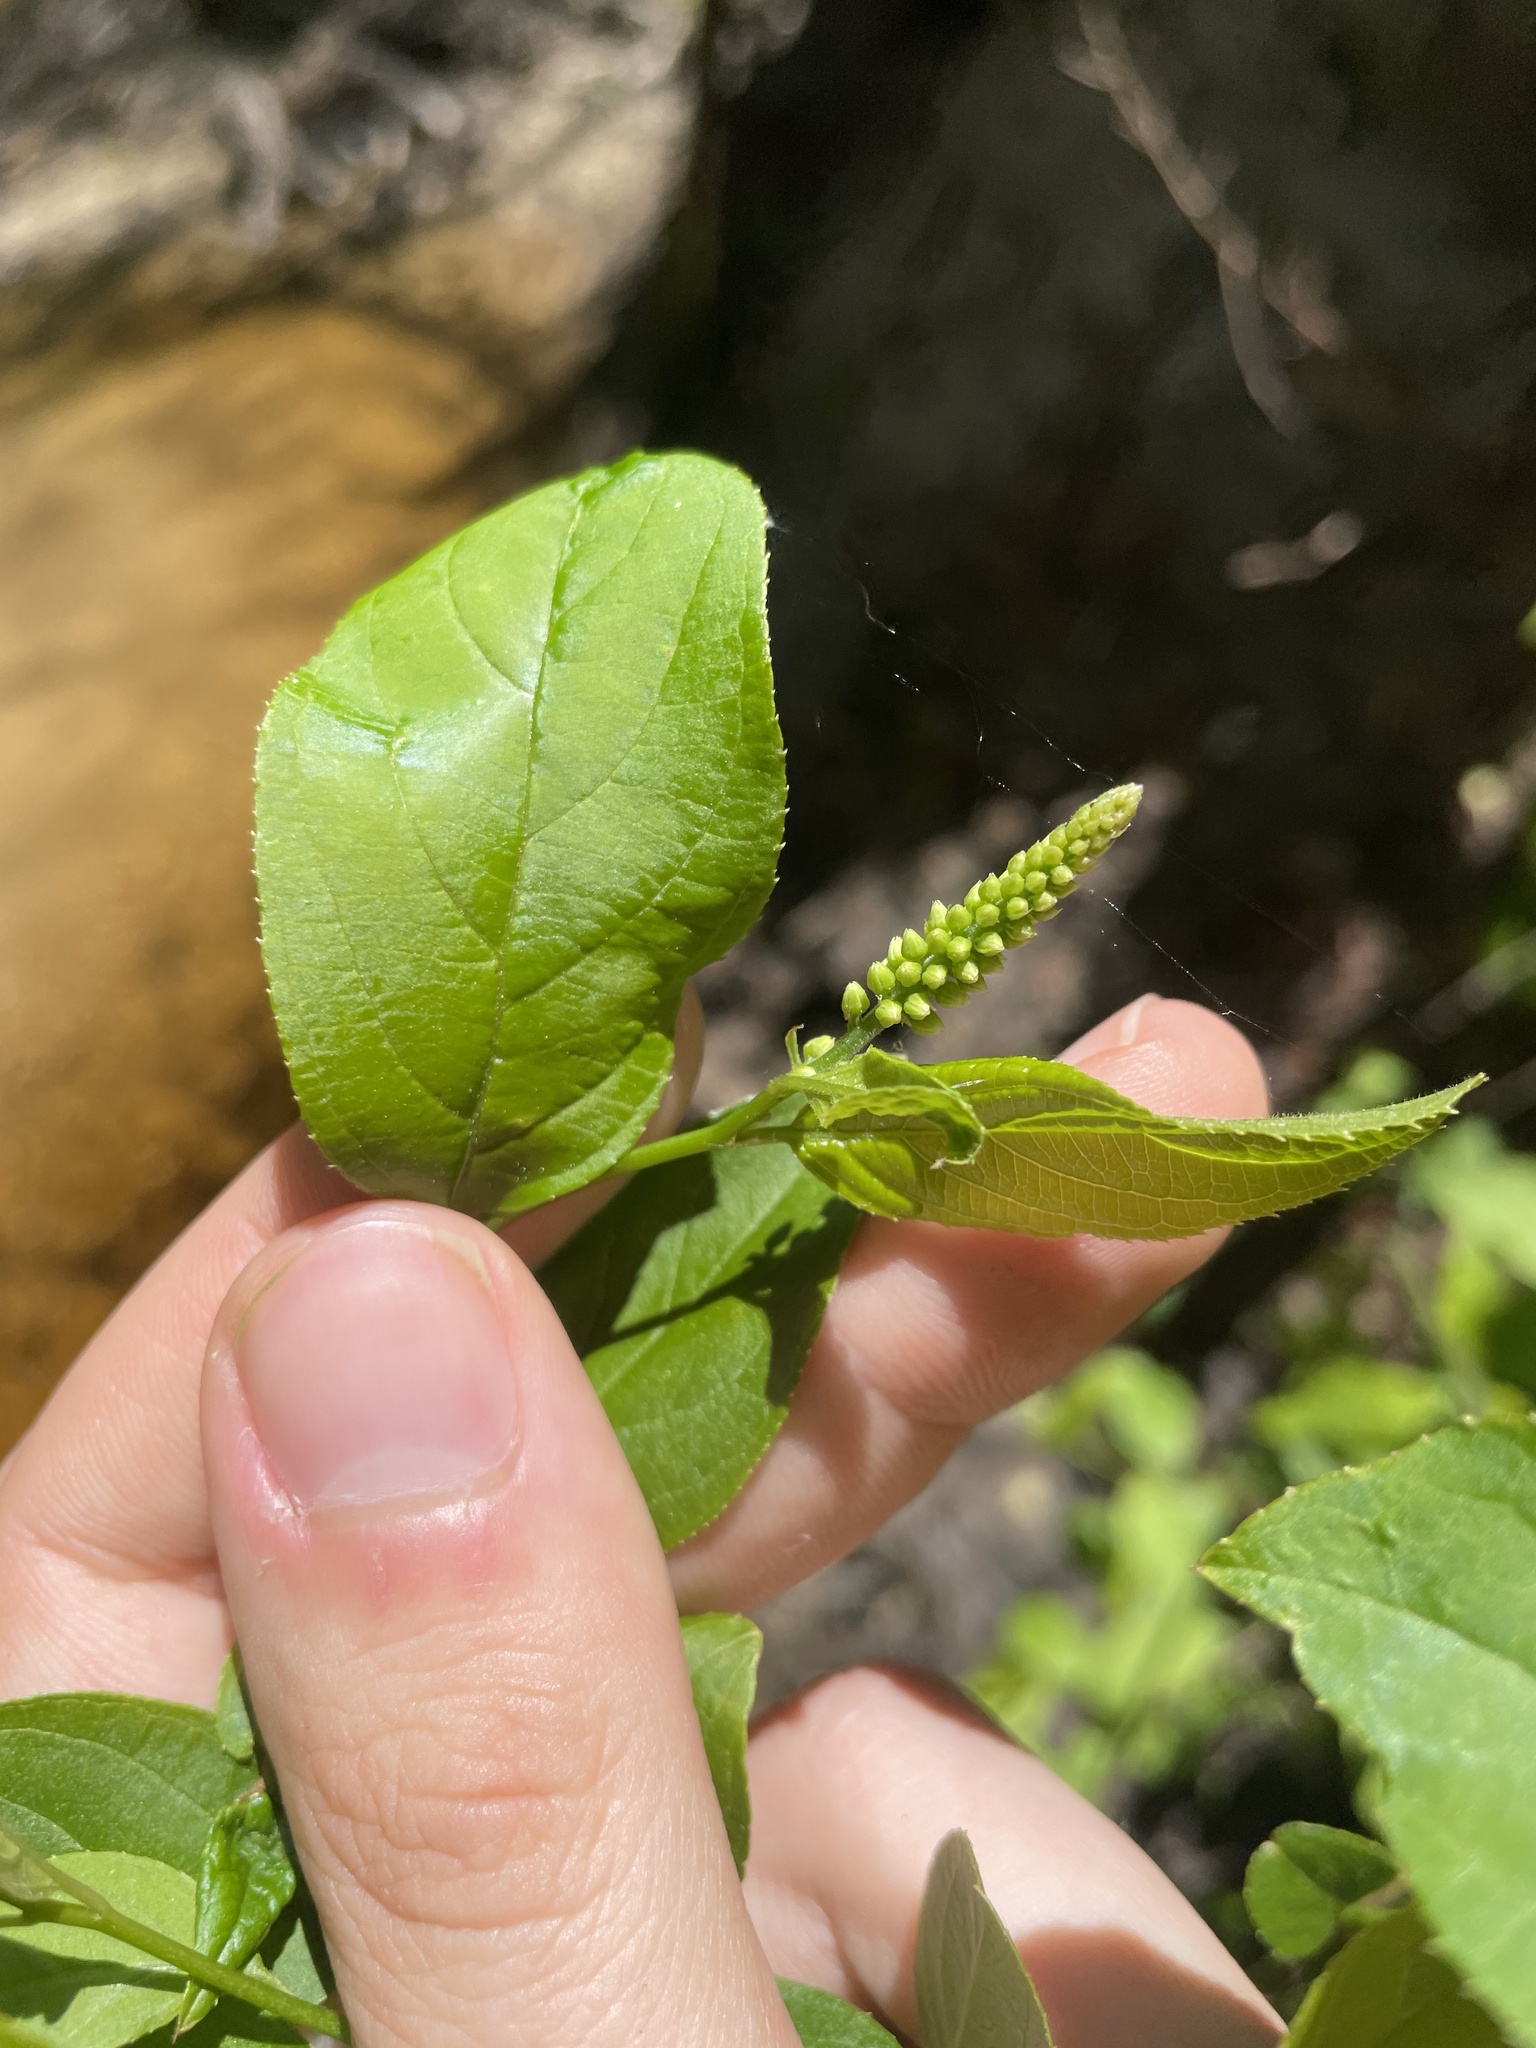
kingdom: Plantae
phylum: Tracheophyta
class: Magnoliopsida
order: Saxifragales
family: Iteaceae
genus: Itea
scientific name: Itea virginica
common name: Sweetspire
